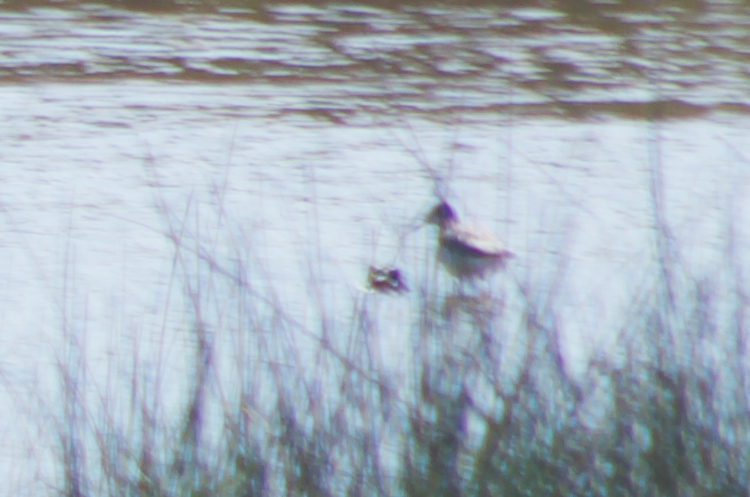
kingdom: Animalia
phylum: Chordata
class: Aves
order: Charadriiformes
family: Recurvirostridae
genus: Recurvirostra
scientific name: Recurvirostra avosetta
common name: Pied avocet
